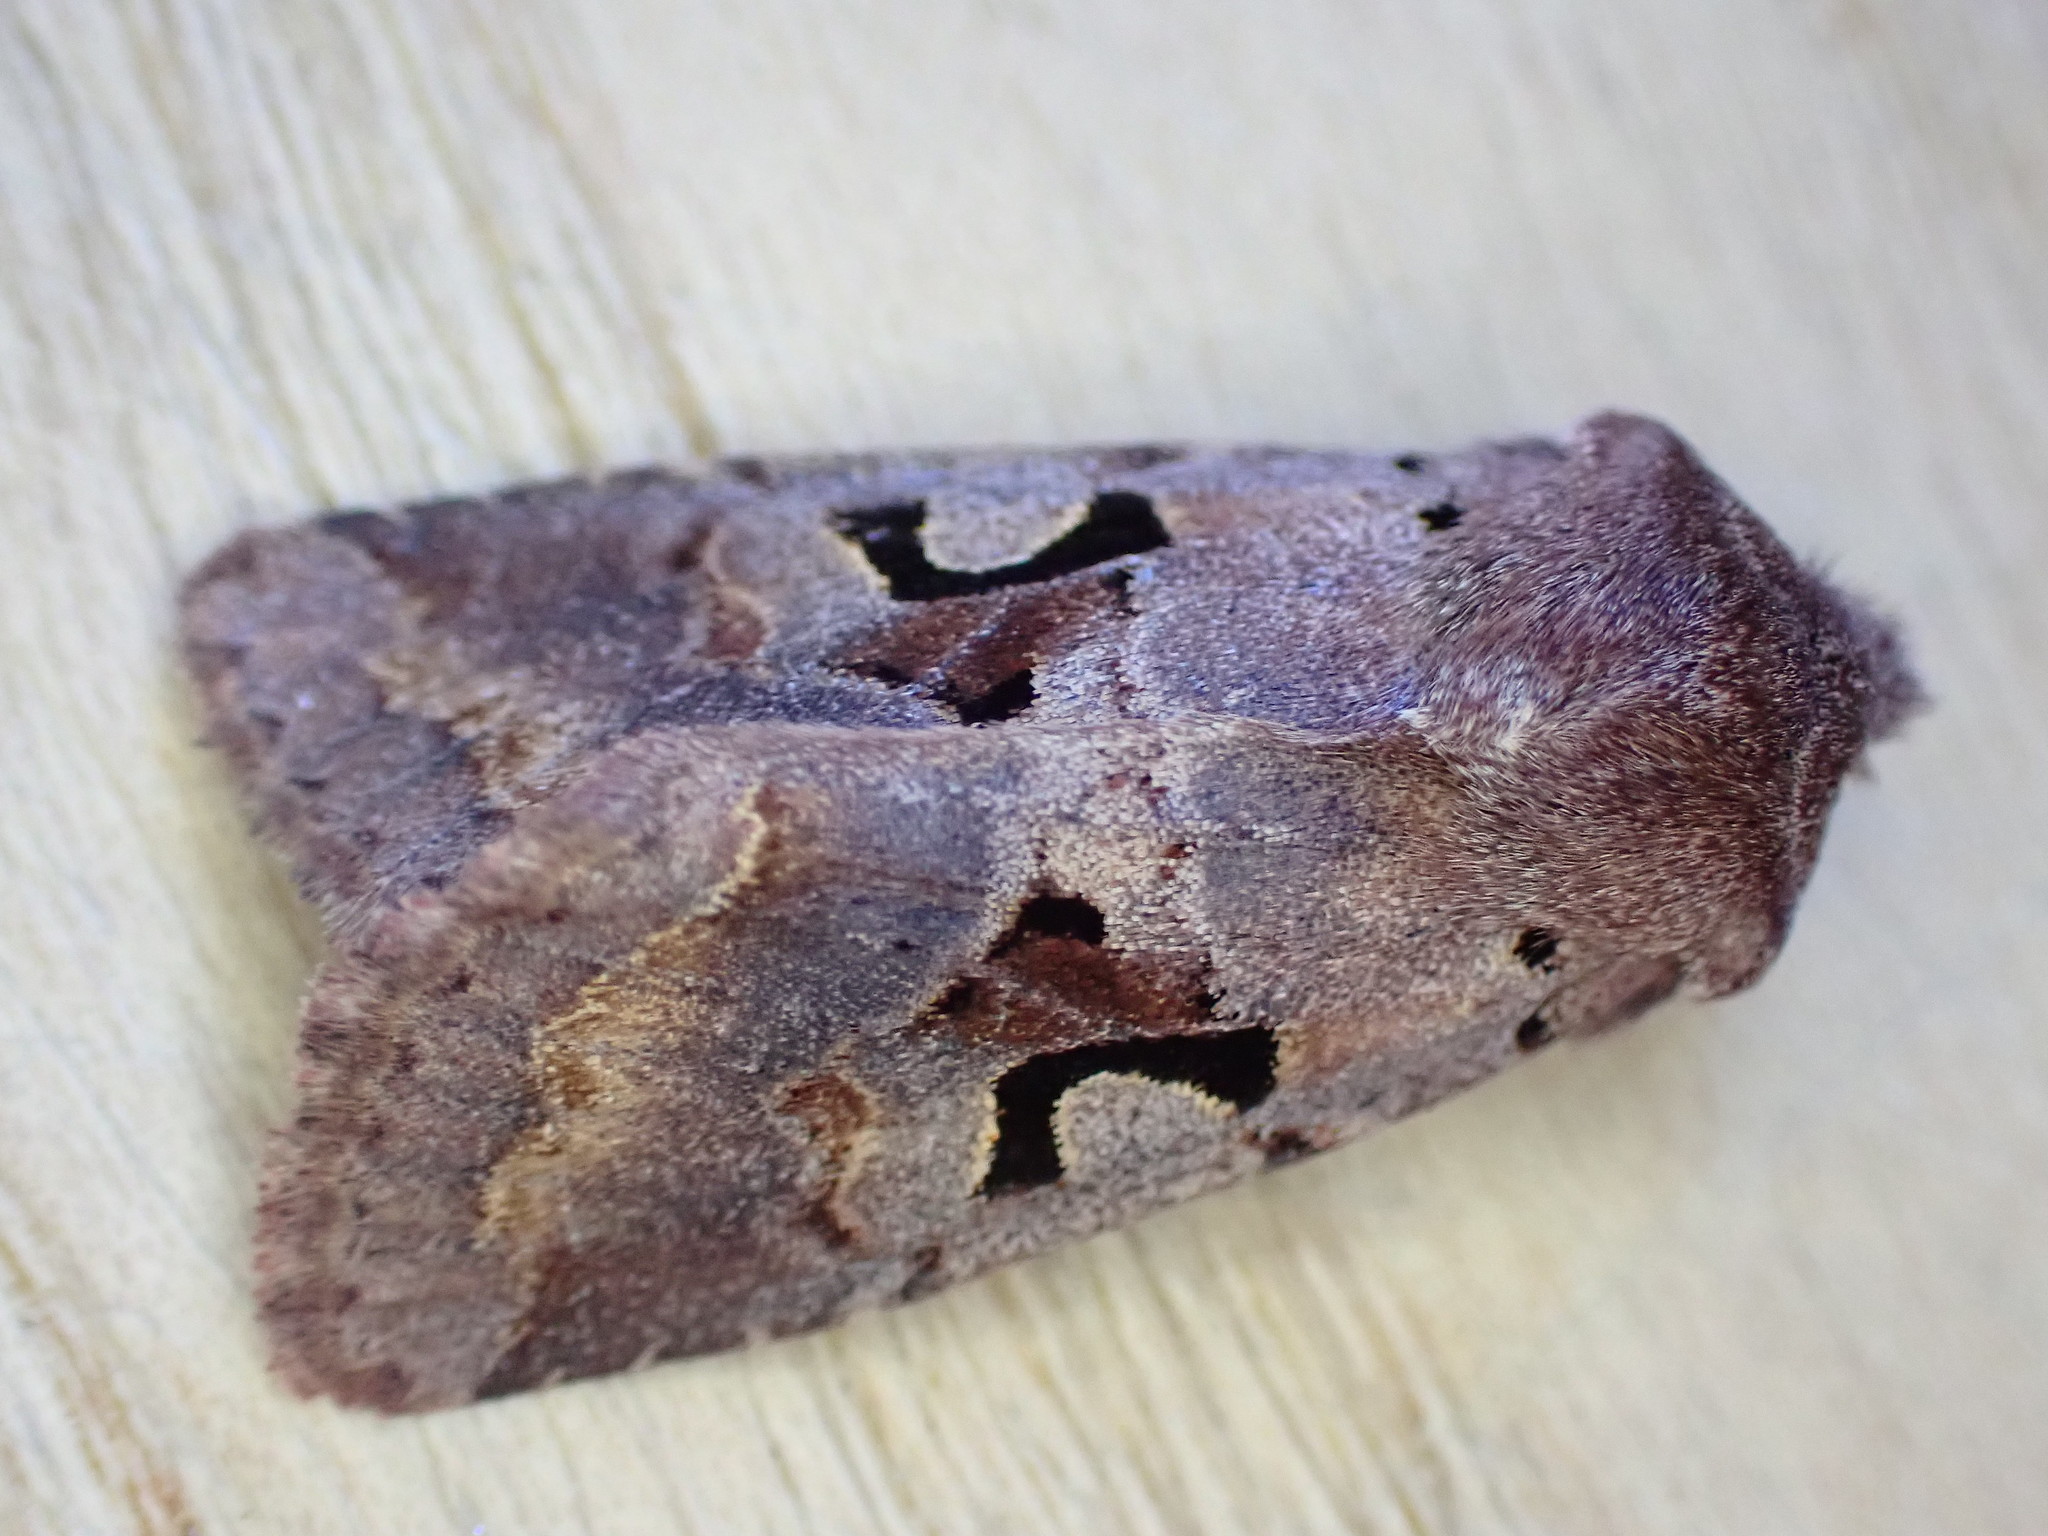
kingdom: Animalia
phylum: Arthropoda
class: Insecta
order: Lepidoptera
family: Noctuidae
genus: Orthosia
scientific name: Orthosia gothica
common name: Hebrew character
